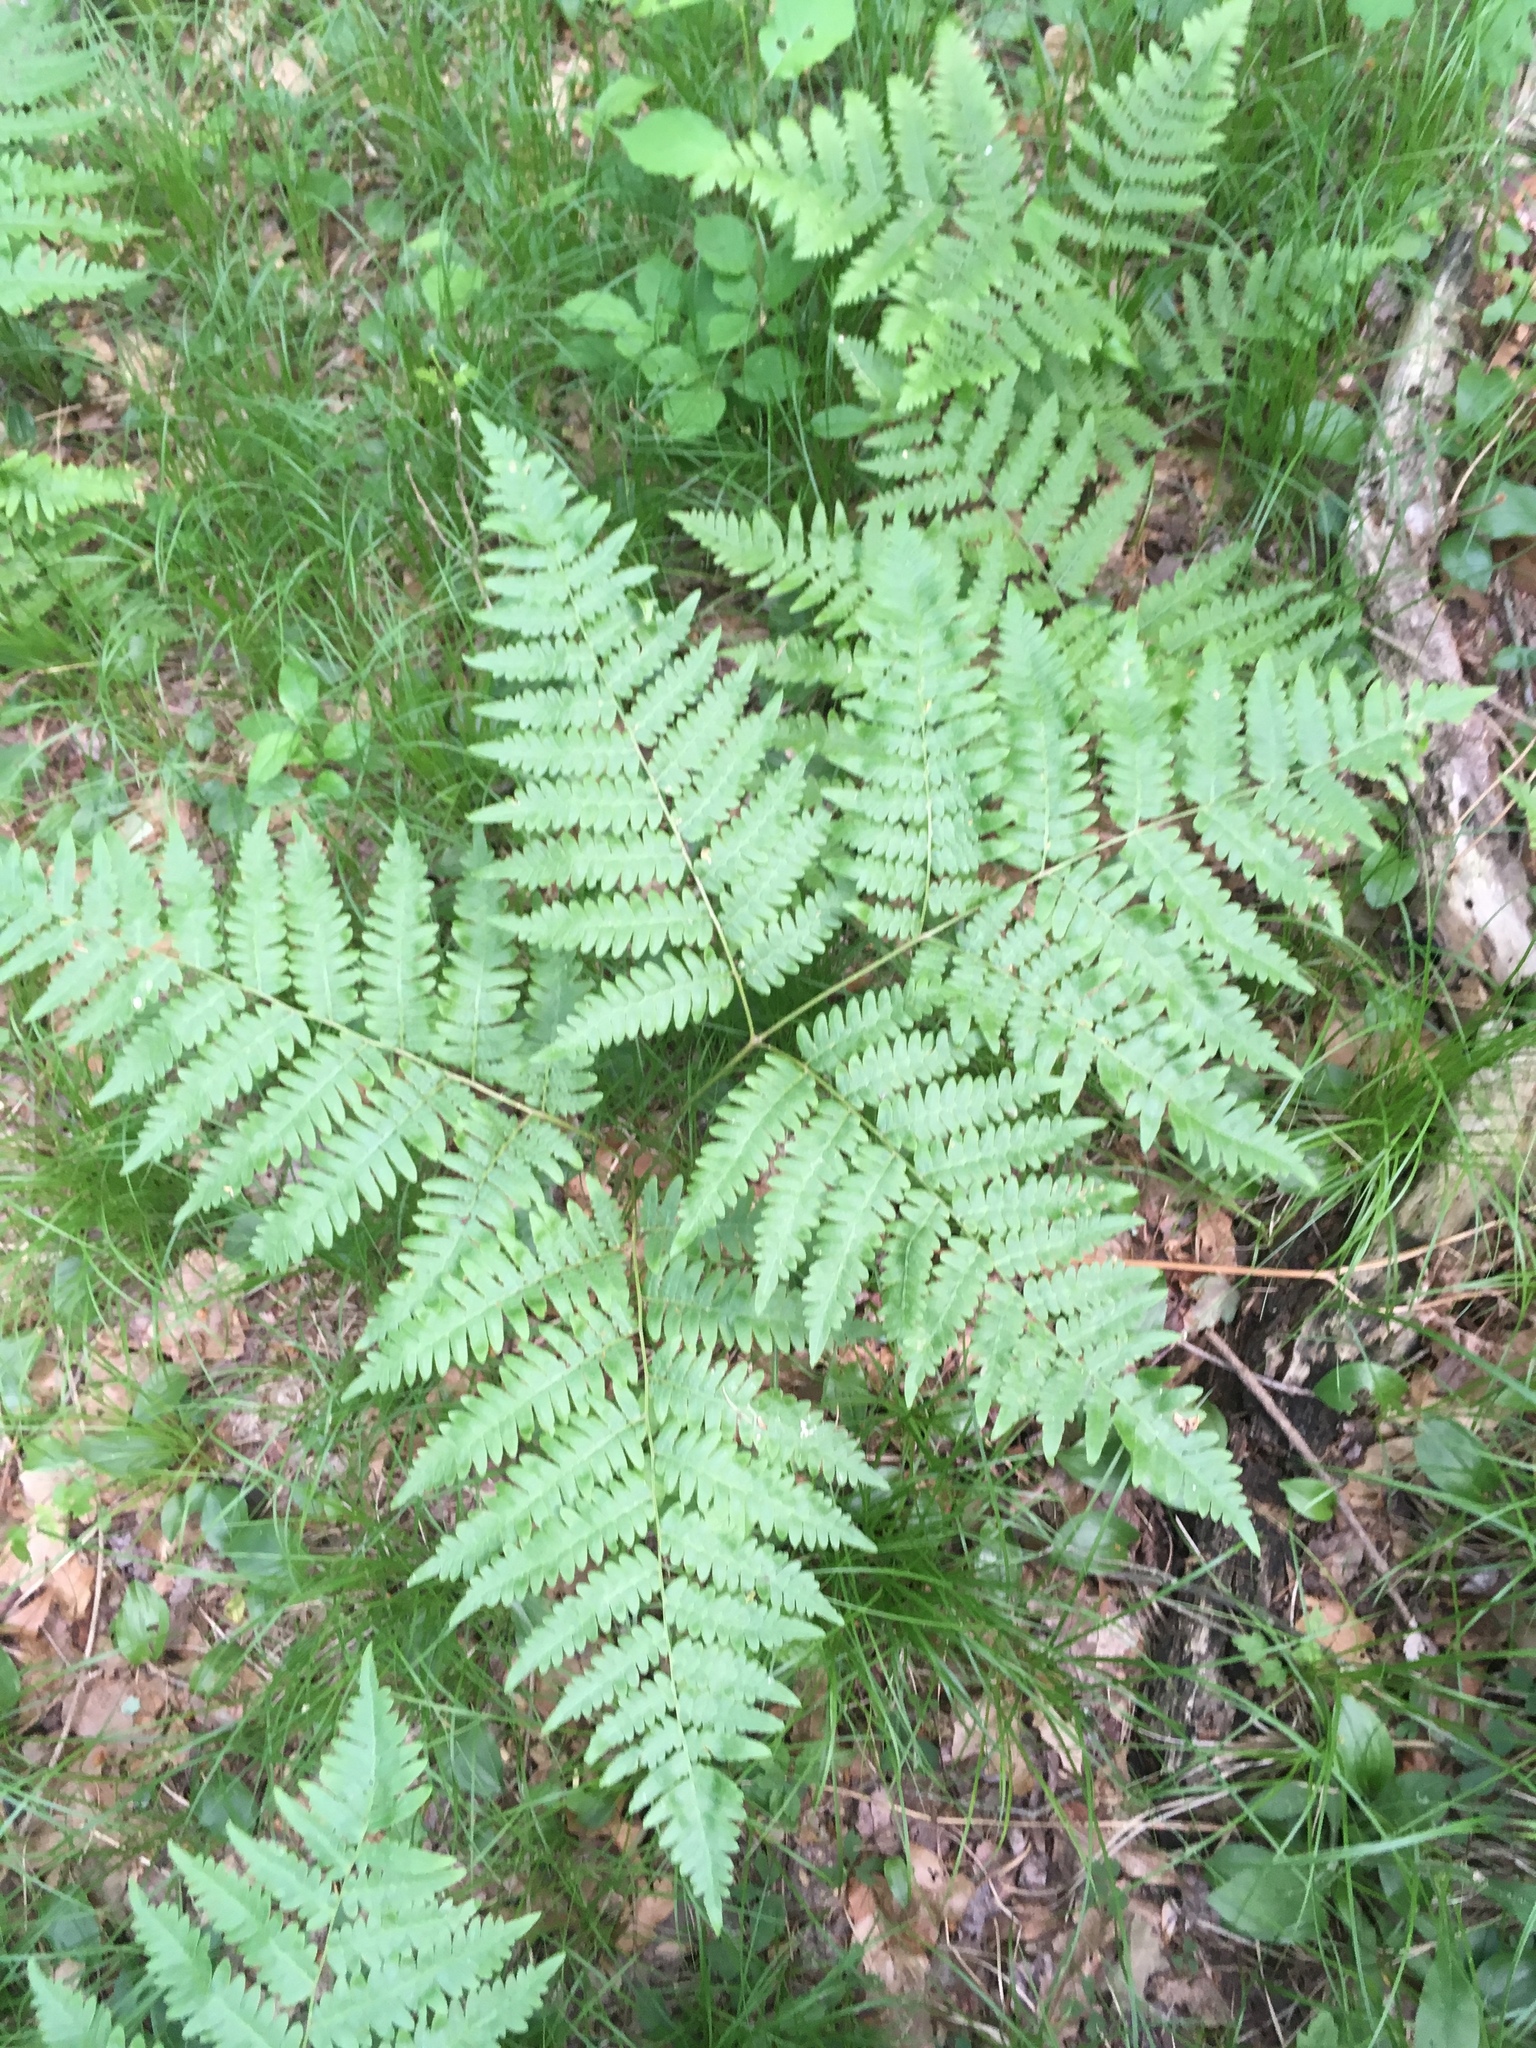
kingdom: Plantae
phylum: Tracheophyta
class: Polypodiopsida
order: Polypodiales
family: Dennstaedtiaceae
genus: Pteridium
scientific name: Pteridium aquilinum
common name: Bracken
